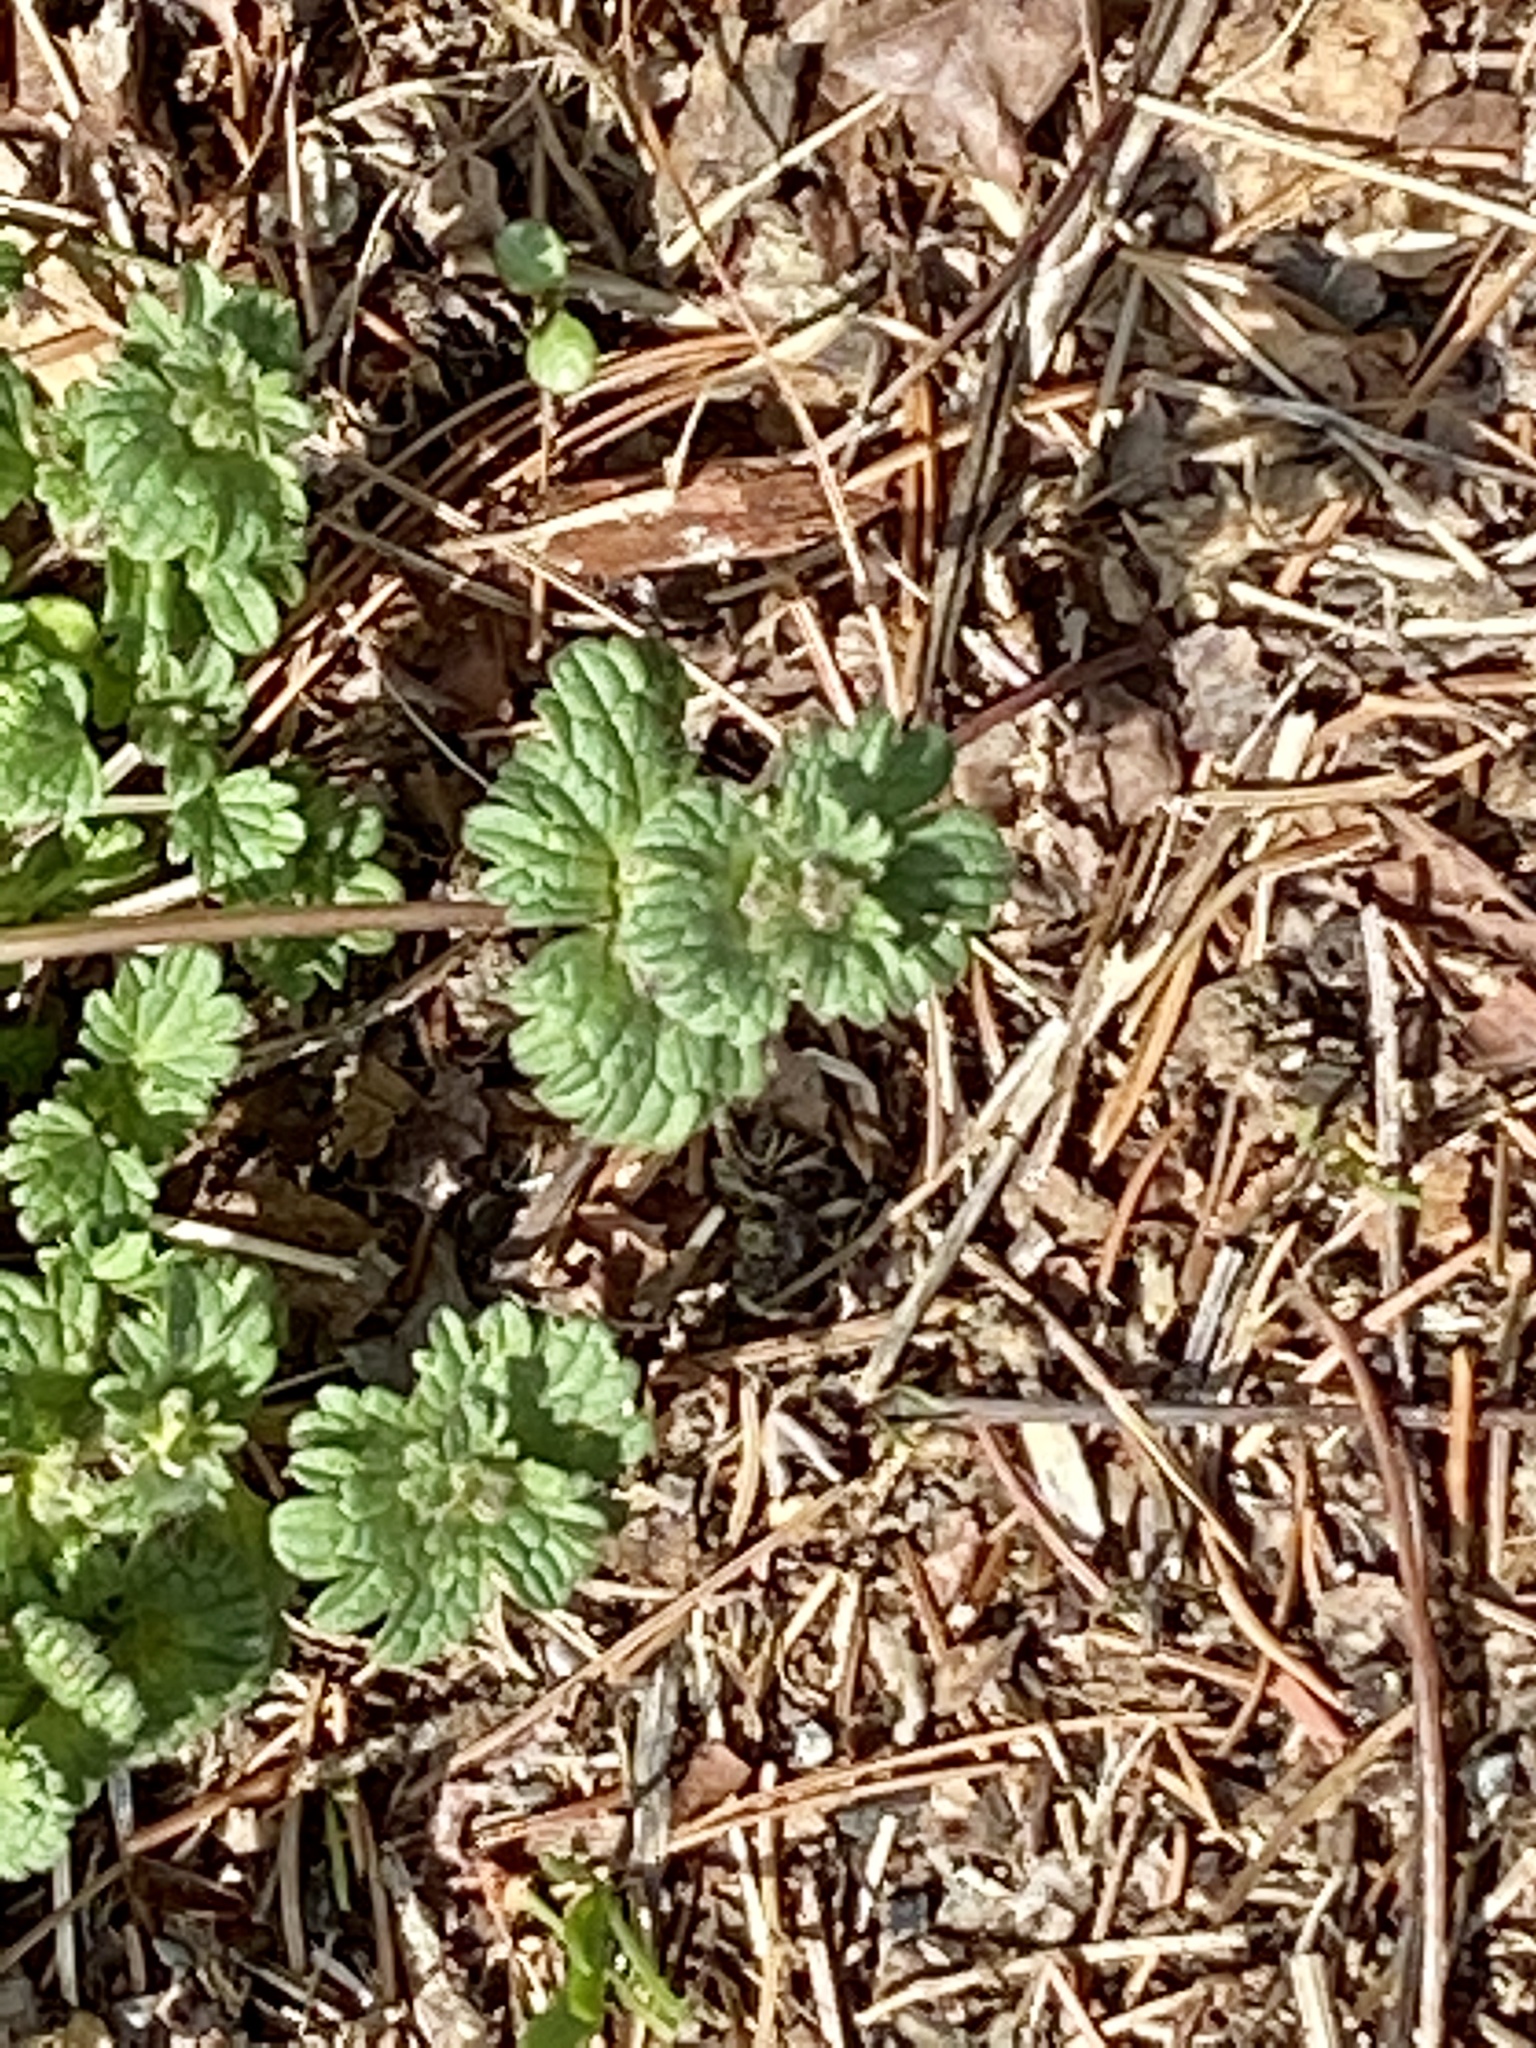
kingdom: Plantae
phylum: Tracheophyta
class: Magnoliopsida
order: Lamiales
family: Lamiaceae
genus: Lamium
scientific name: Lamium amplexicaule
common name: Henbit dead-nettle
